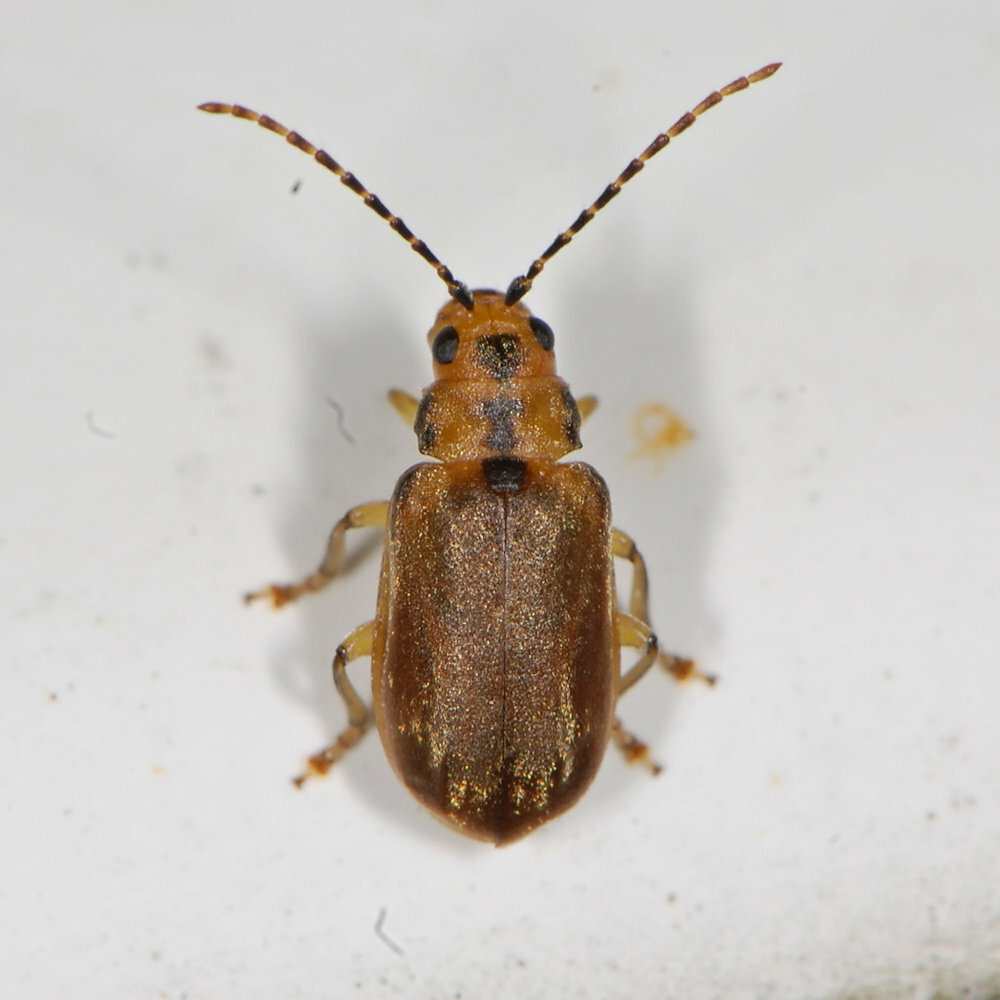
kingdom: Animalia
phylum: Arthropoda
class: Insecta
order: Coleoptera
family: Chrysomelidae
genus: Pyrrhalta
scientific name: Pyrrhalta viburni
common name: Guelder-rose leaf beetle
